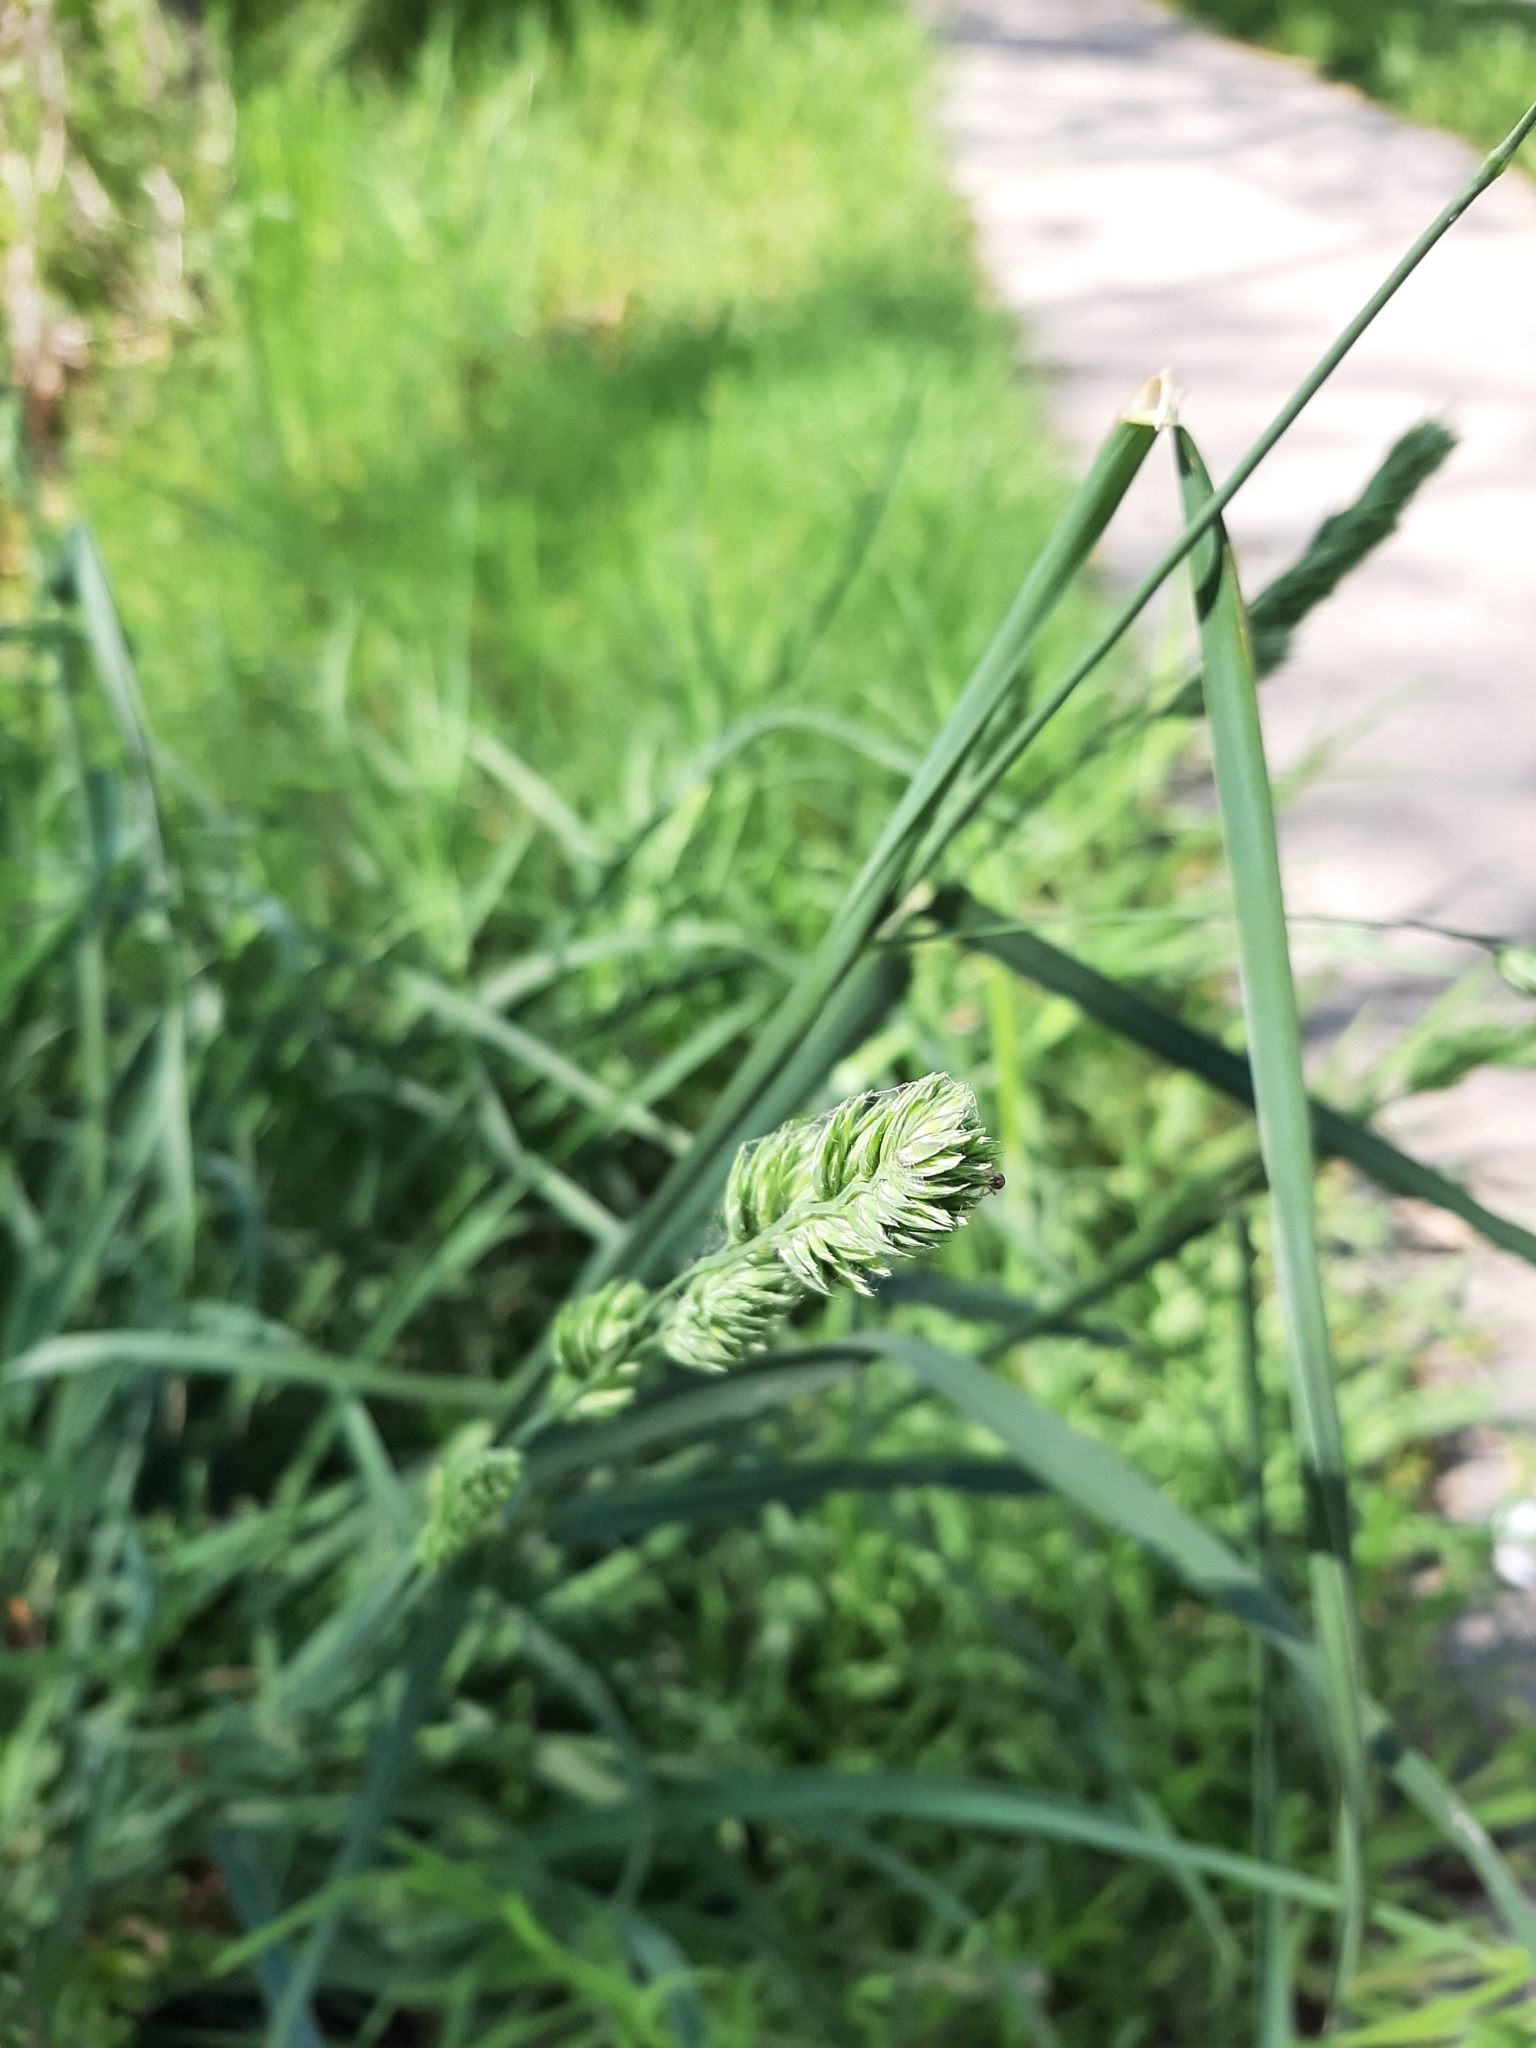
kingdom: Plantae
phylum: Tracheophyta
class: Liliopsida
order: Poales
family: Poaceae
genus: Dactylis
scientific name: Dactylis glomerata
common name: Orchardgrass
